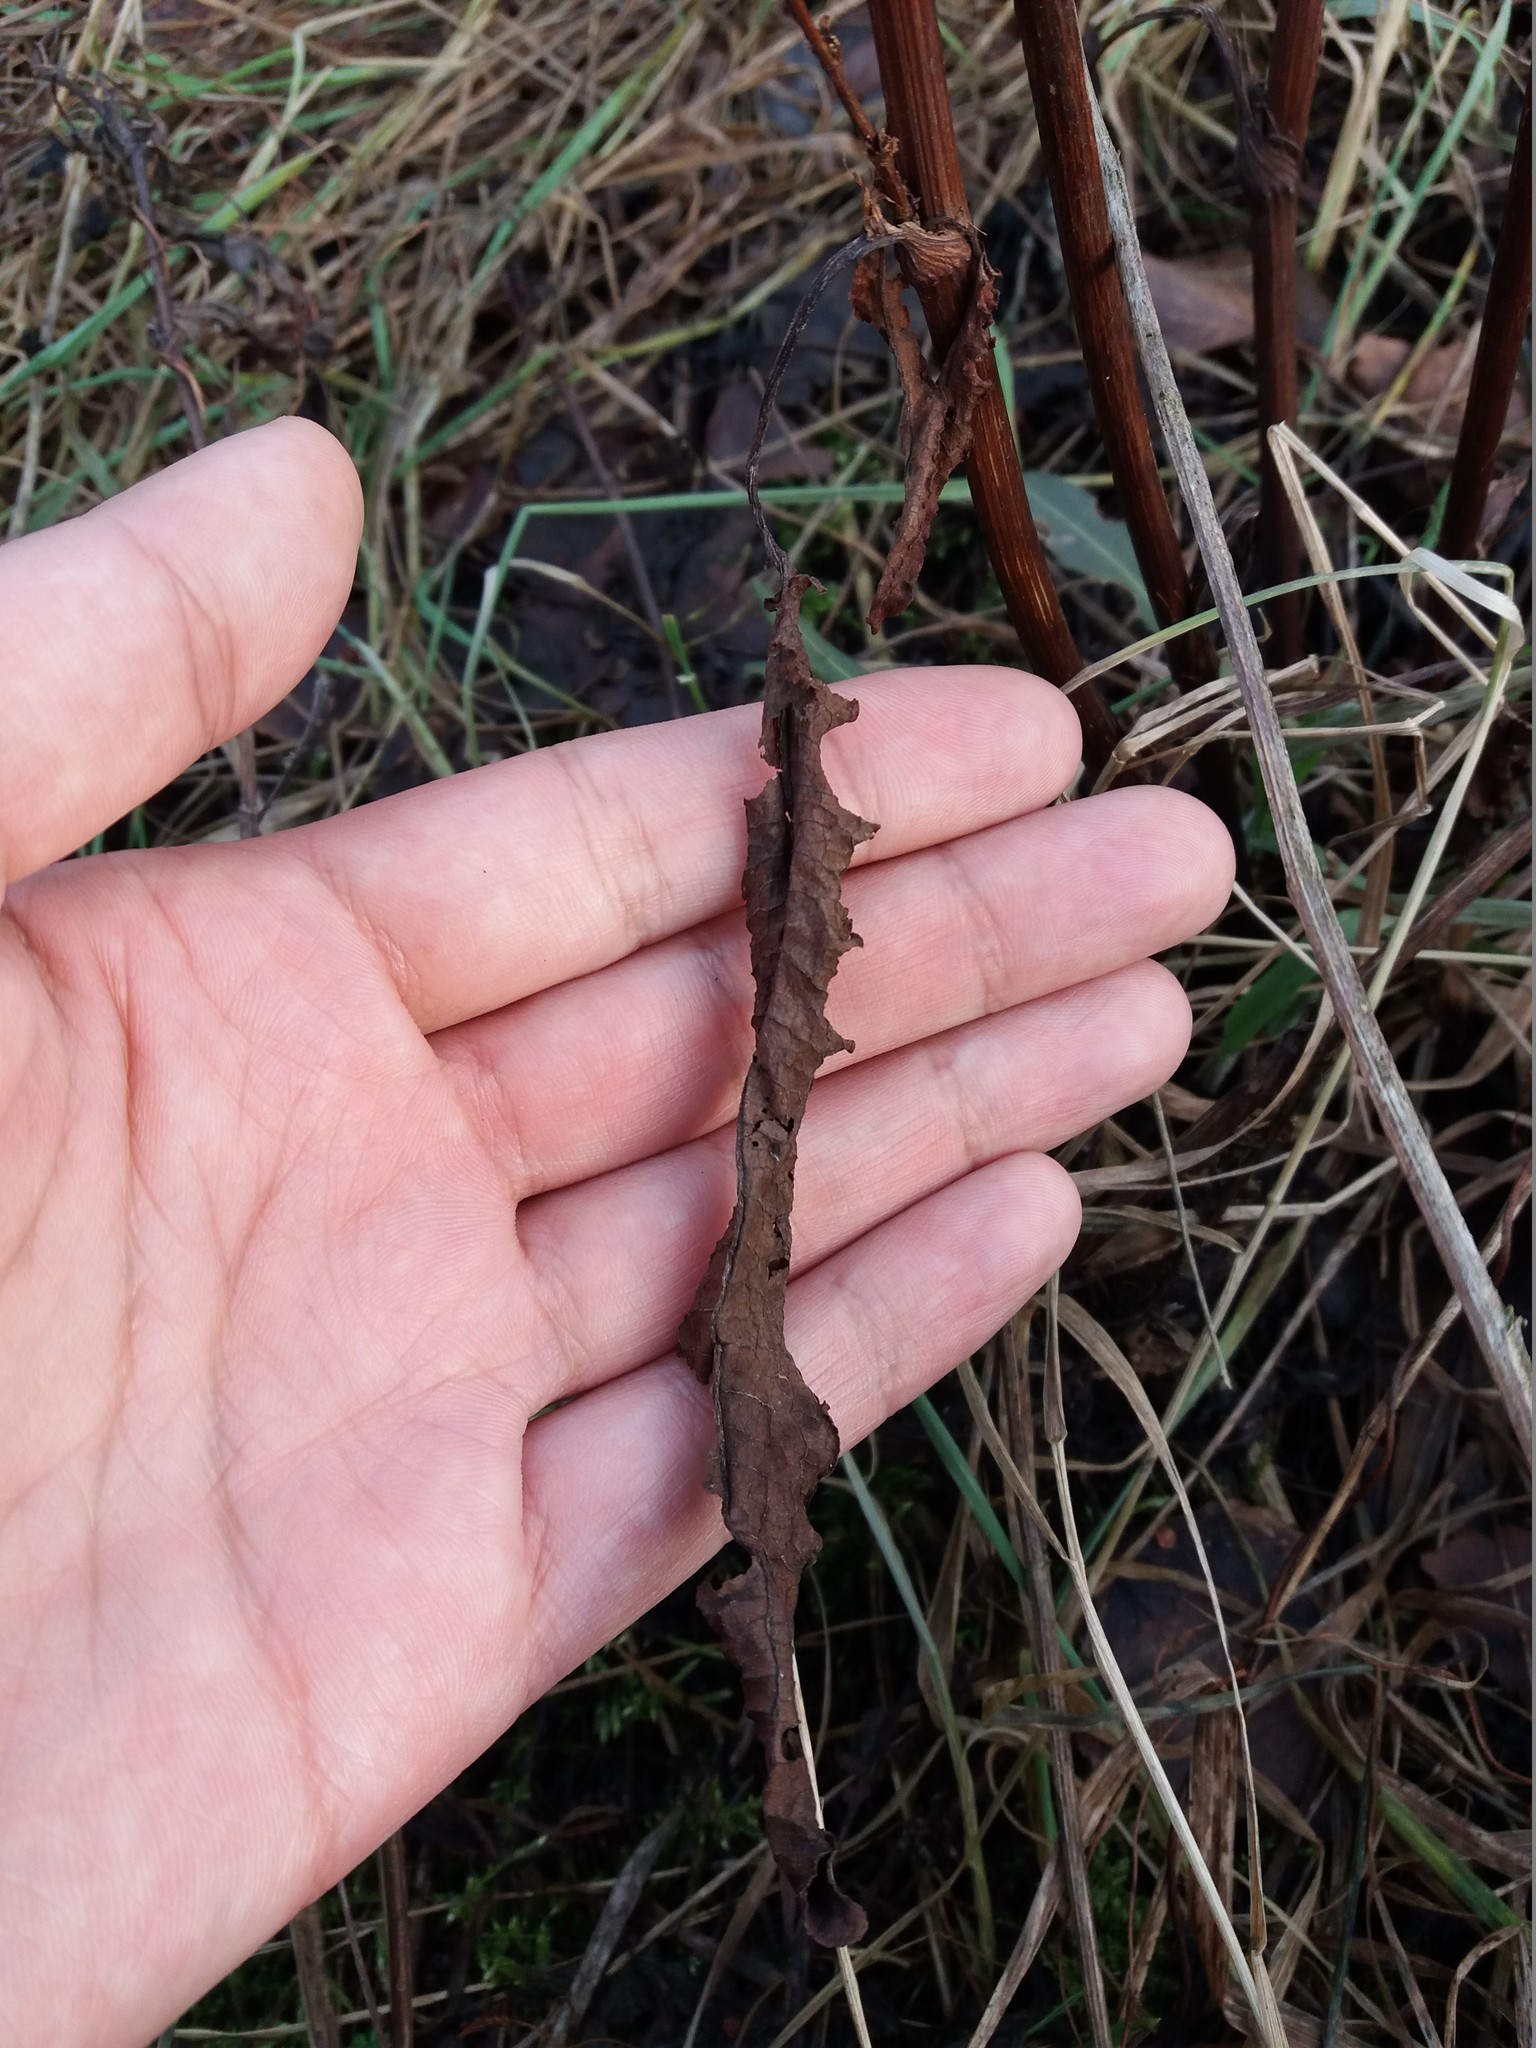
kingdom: Plantae
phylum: Tracheophyta
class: Magnoliopsida
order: Caryophyllales
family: Polygonaceae
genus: Rumex
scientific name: Rumex crispus
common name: Curled dock
